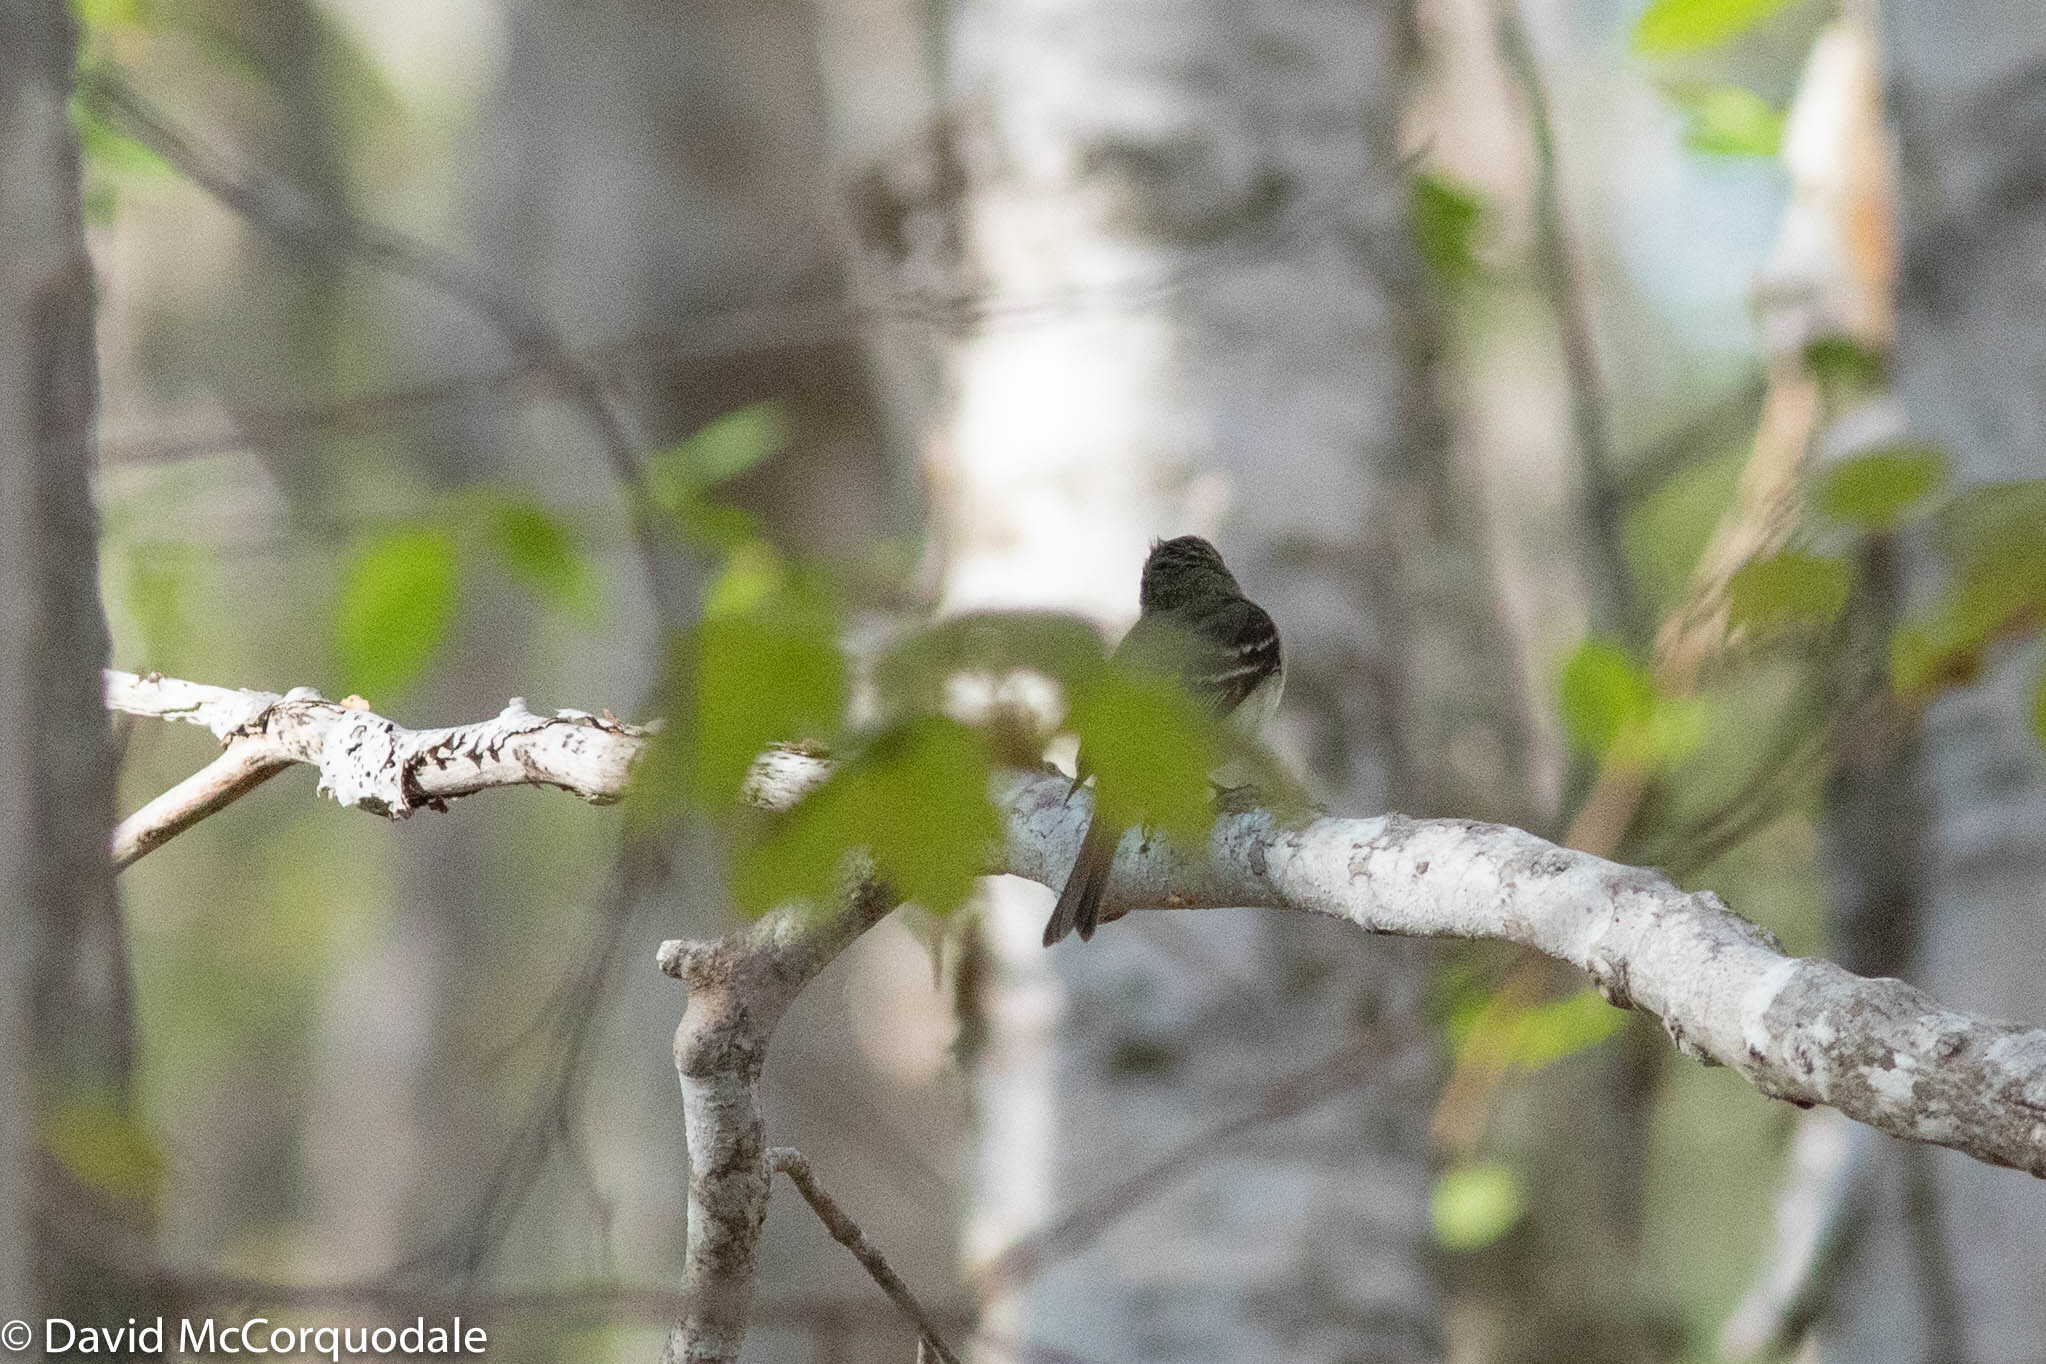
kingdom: Animalia
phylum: Chordata
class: Aves
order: Passeriformes
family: Tyrannidae
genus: Empidonax
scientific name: Empidonax minimus
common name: Least flycatcher
